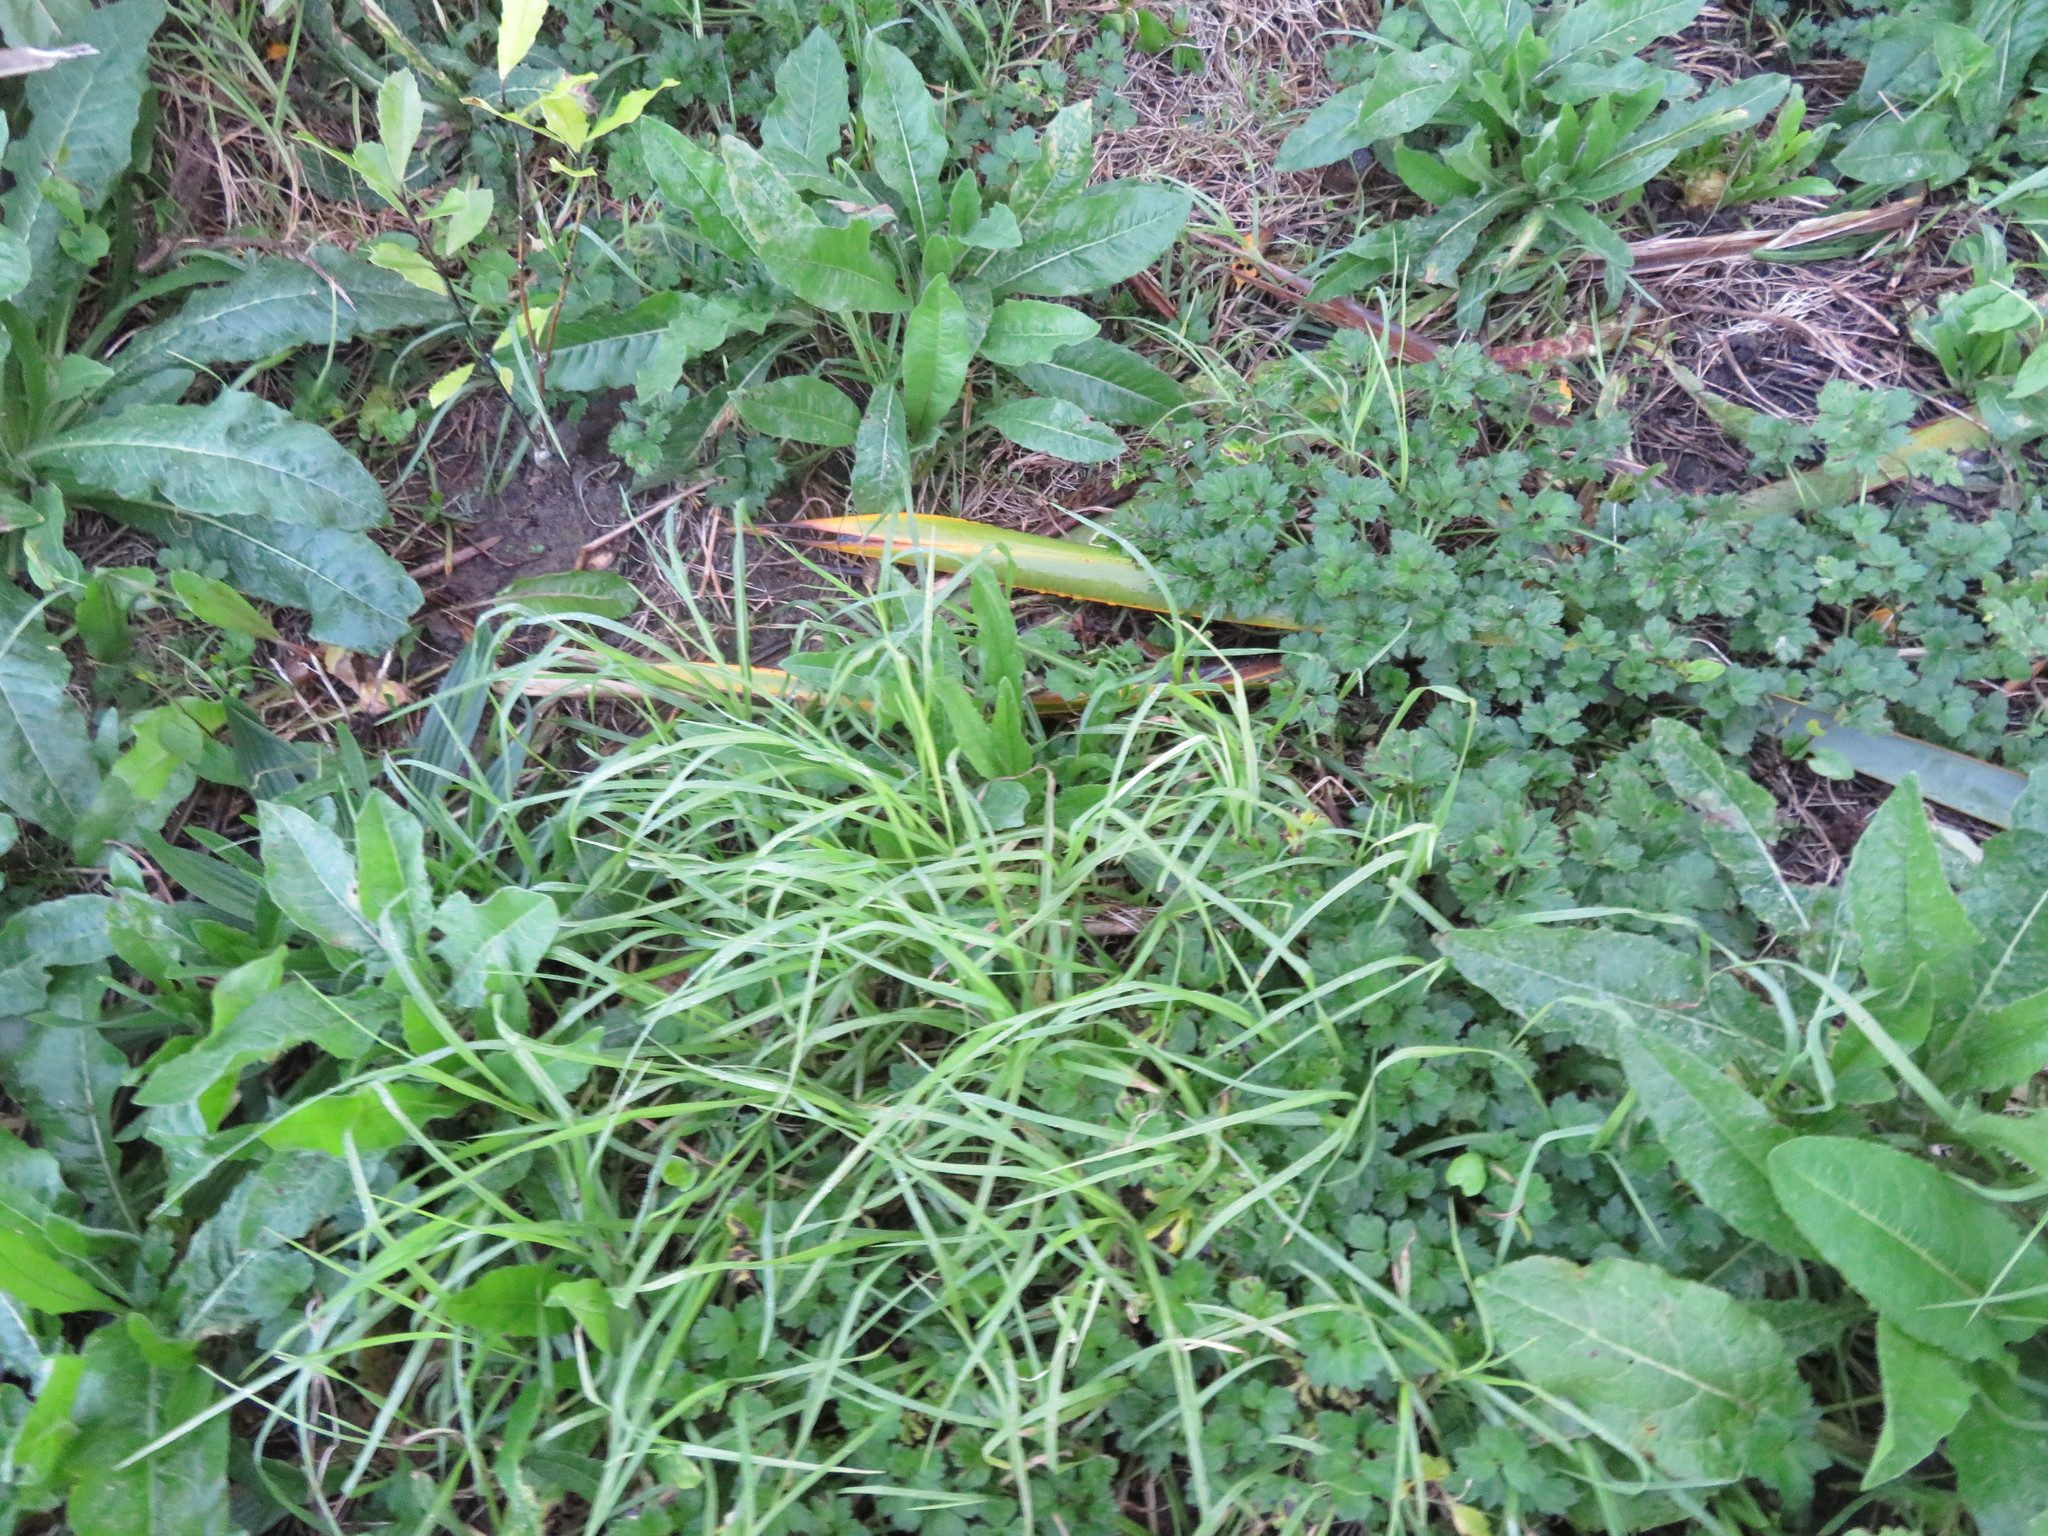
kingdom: Plantae
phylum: Tracheophyta
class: Liliopsida
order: Poales
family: Poaceae
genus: Cenchrus
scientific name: Cenchrus clandestinus
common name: Kikuyugrass
